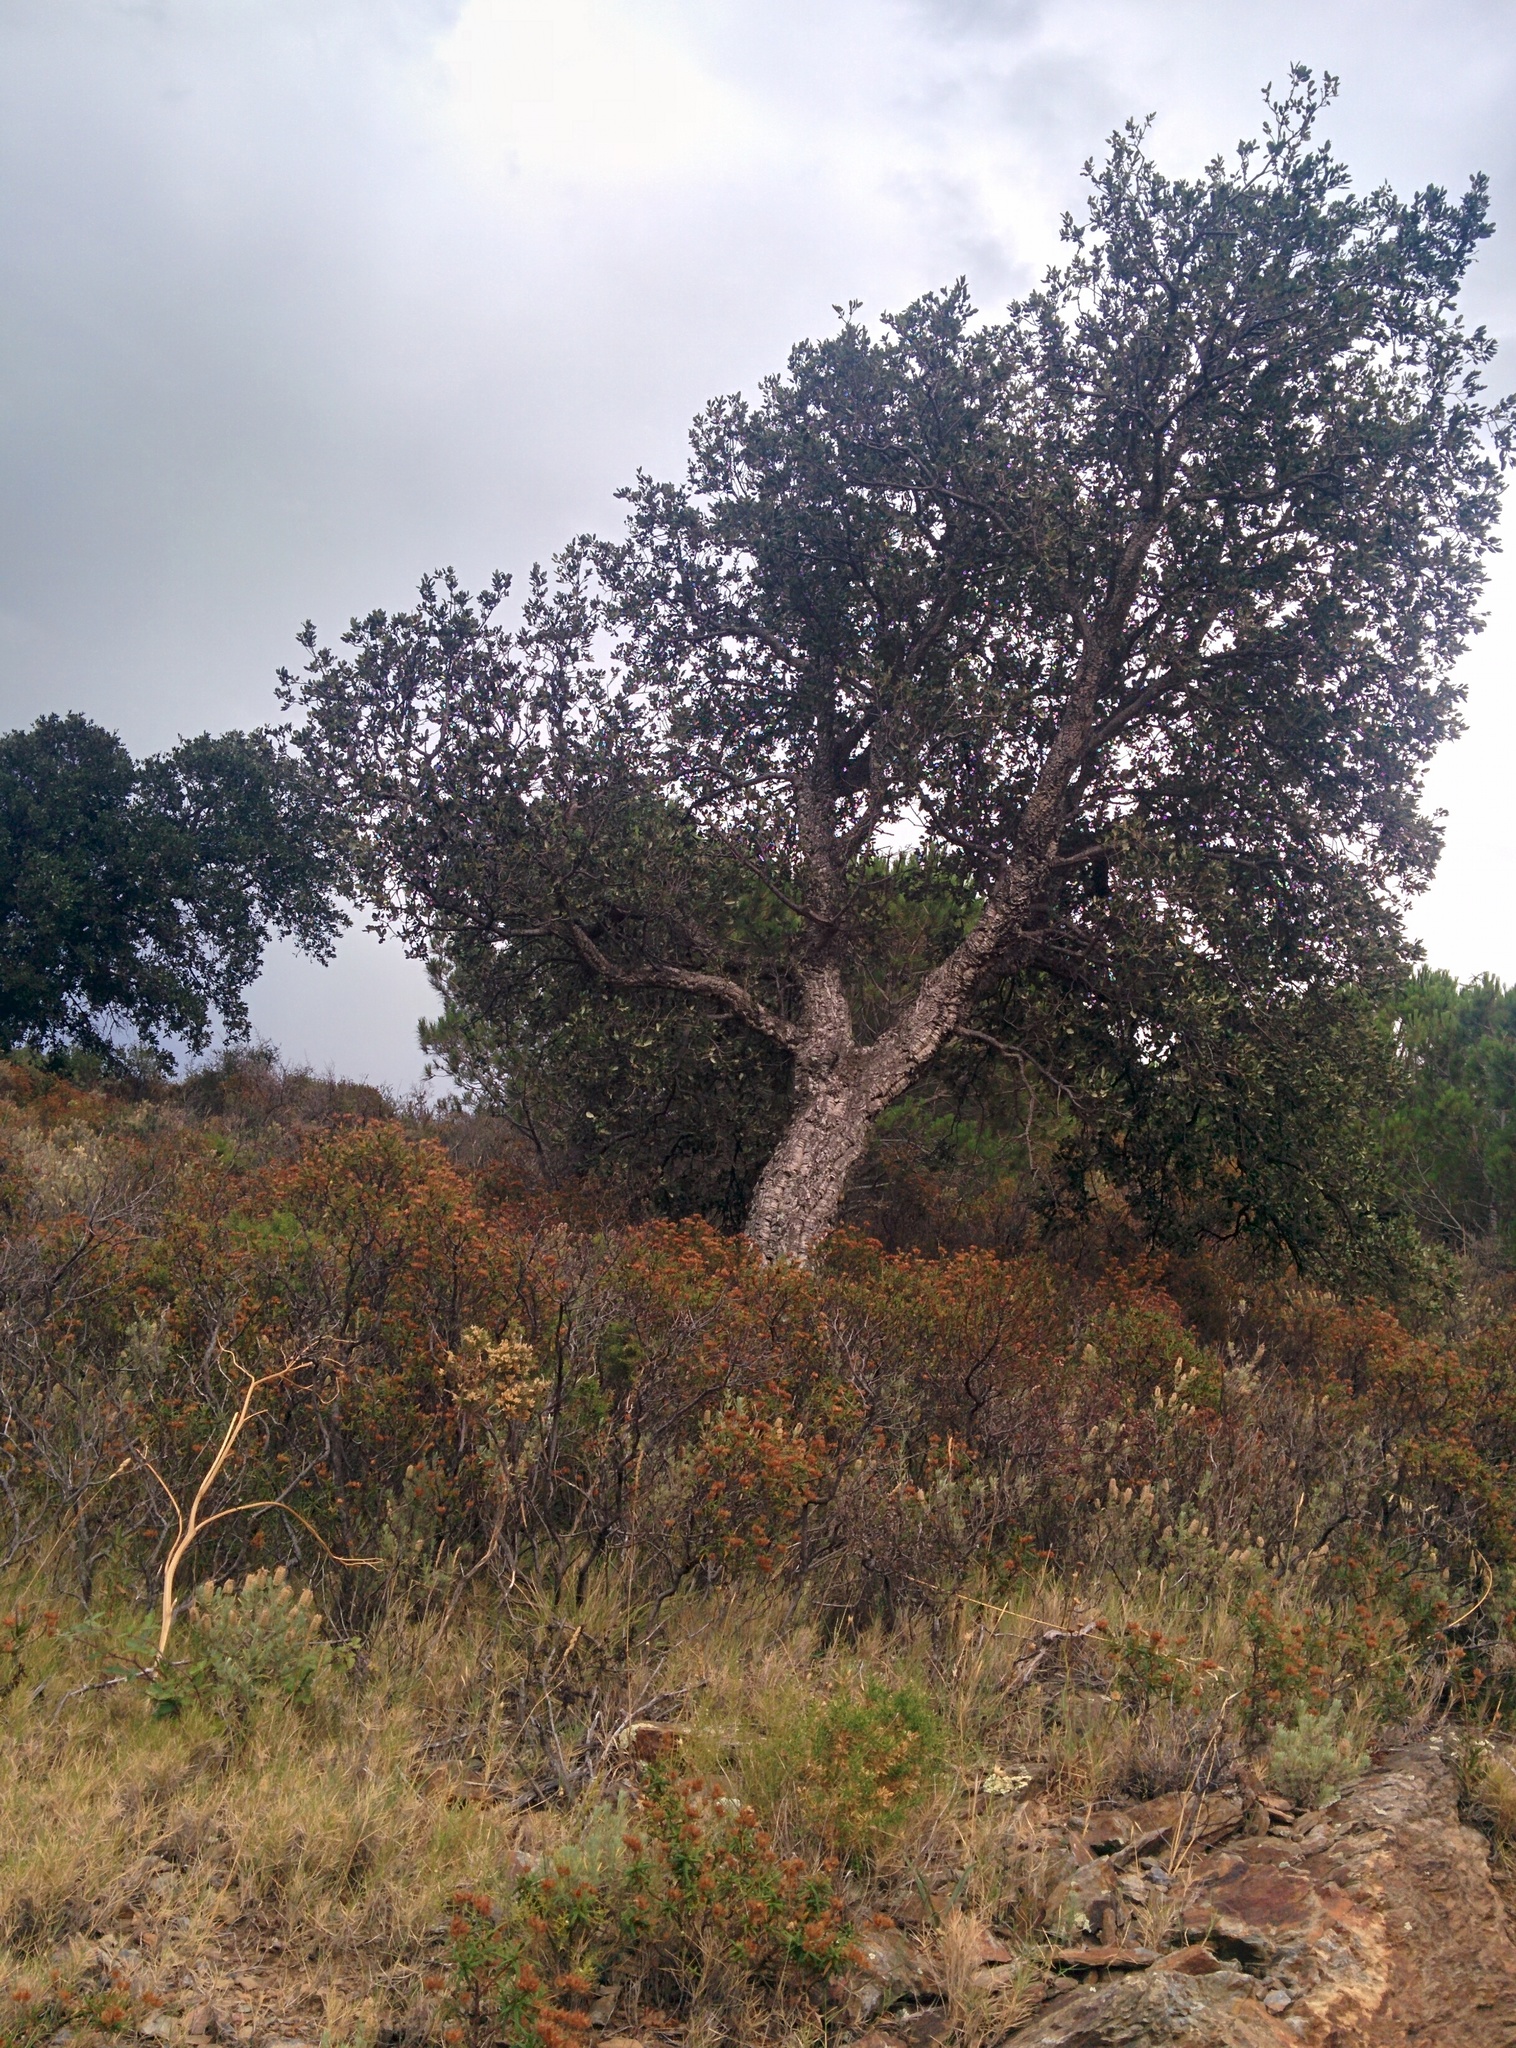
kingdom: Plantae
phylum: Tracheophyta
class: Magnoliopsida
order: Fagales
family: Fagaceae
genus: Quercus
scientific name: Quercus suber
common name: Cork oak
